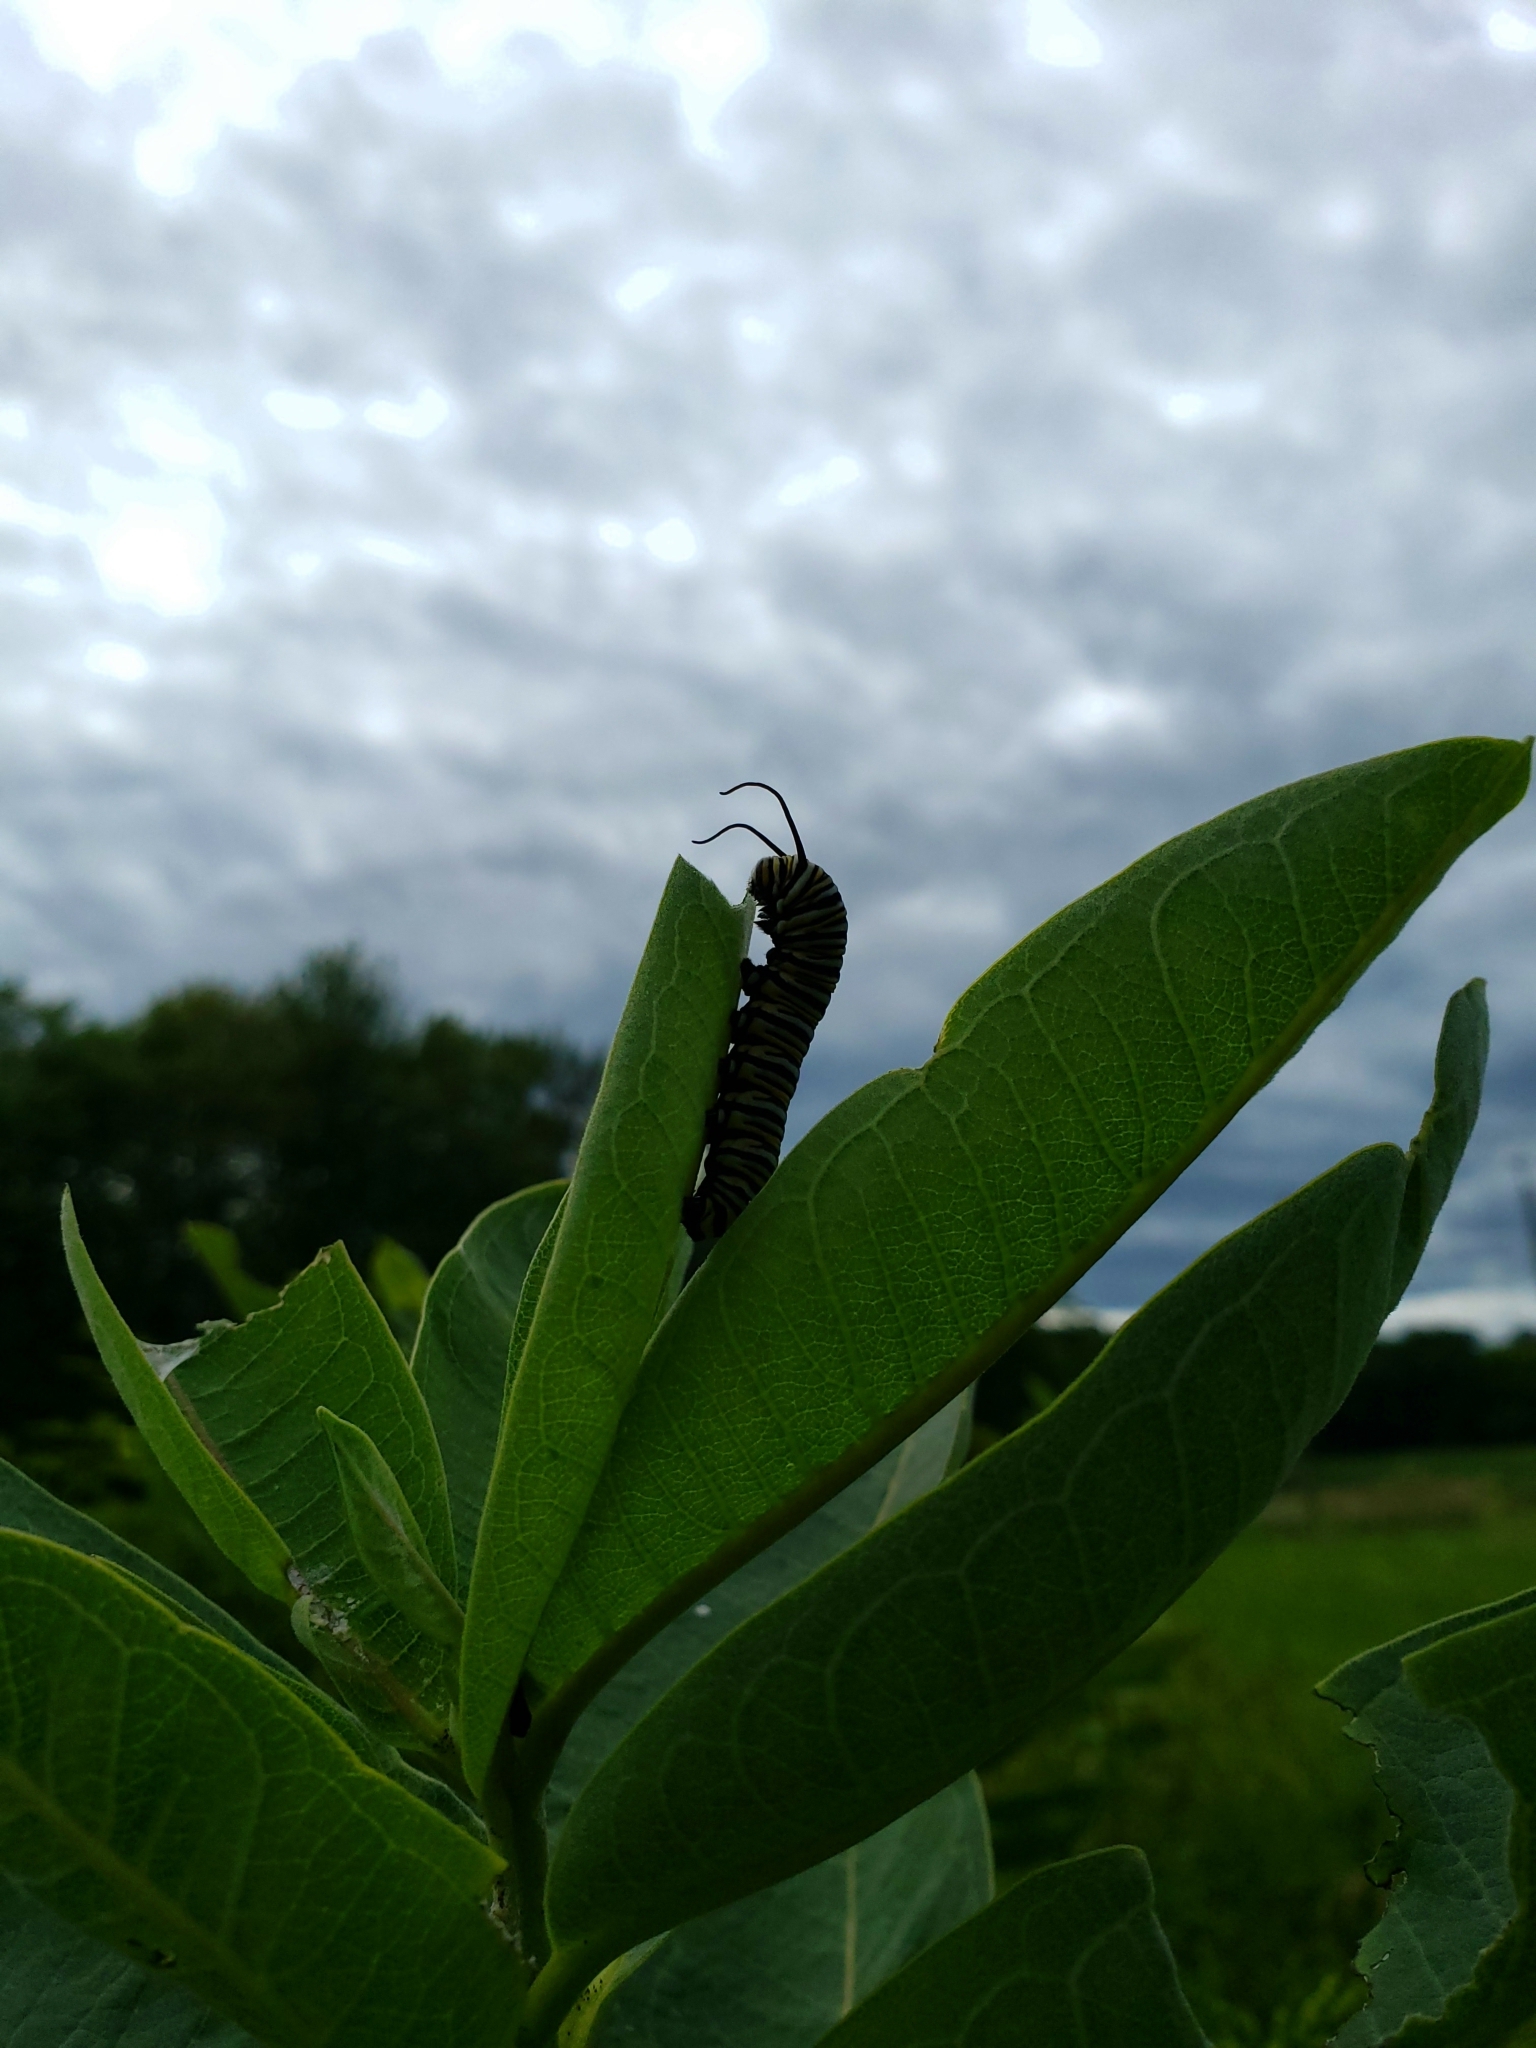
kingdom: Animalia
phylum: Arthropoda
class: Insecta
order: Lepidoptera
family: Nymphalidae
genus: Danaus
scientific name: Danaus plexippus
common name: Monarch
